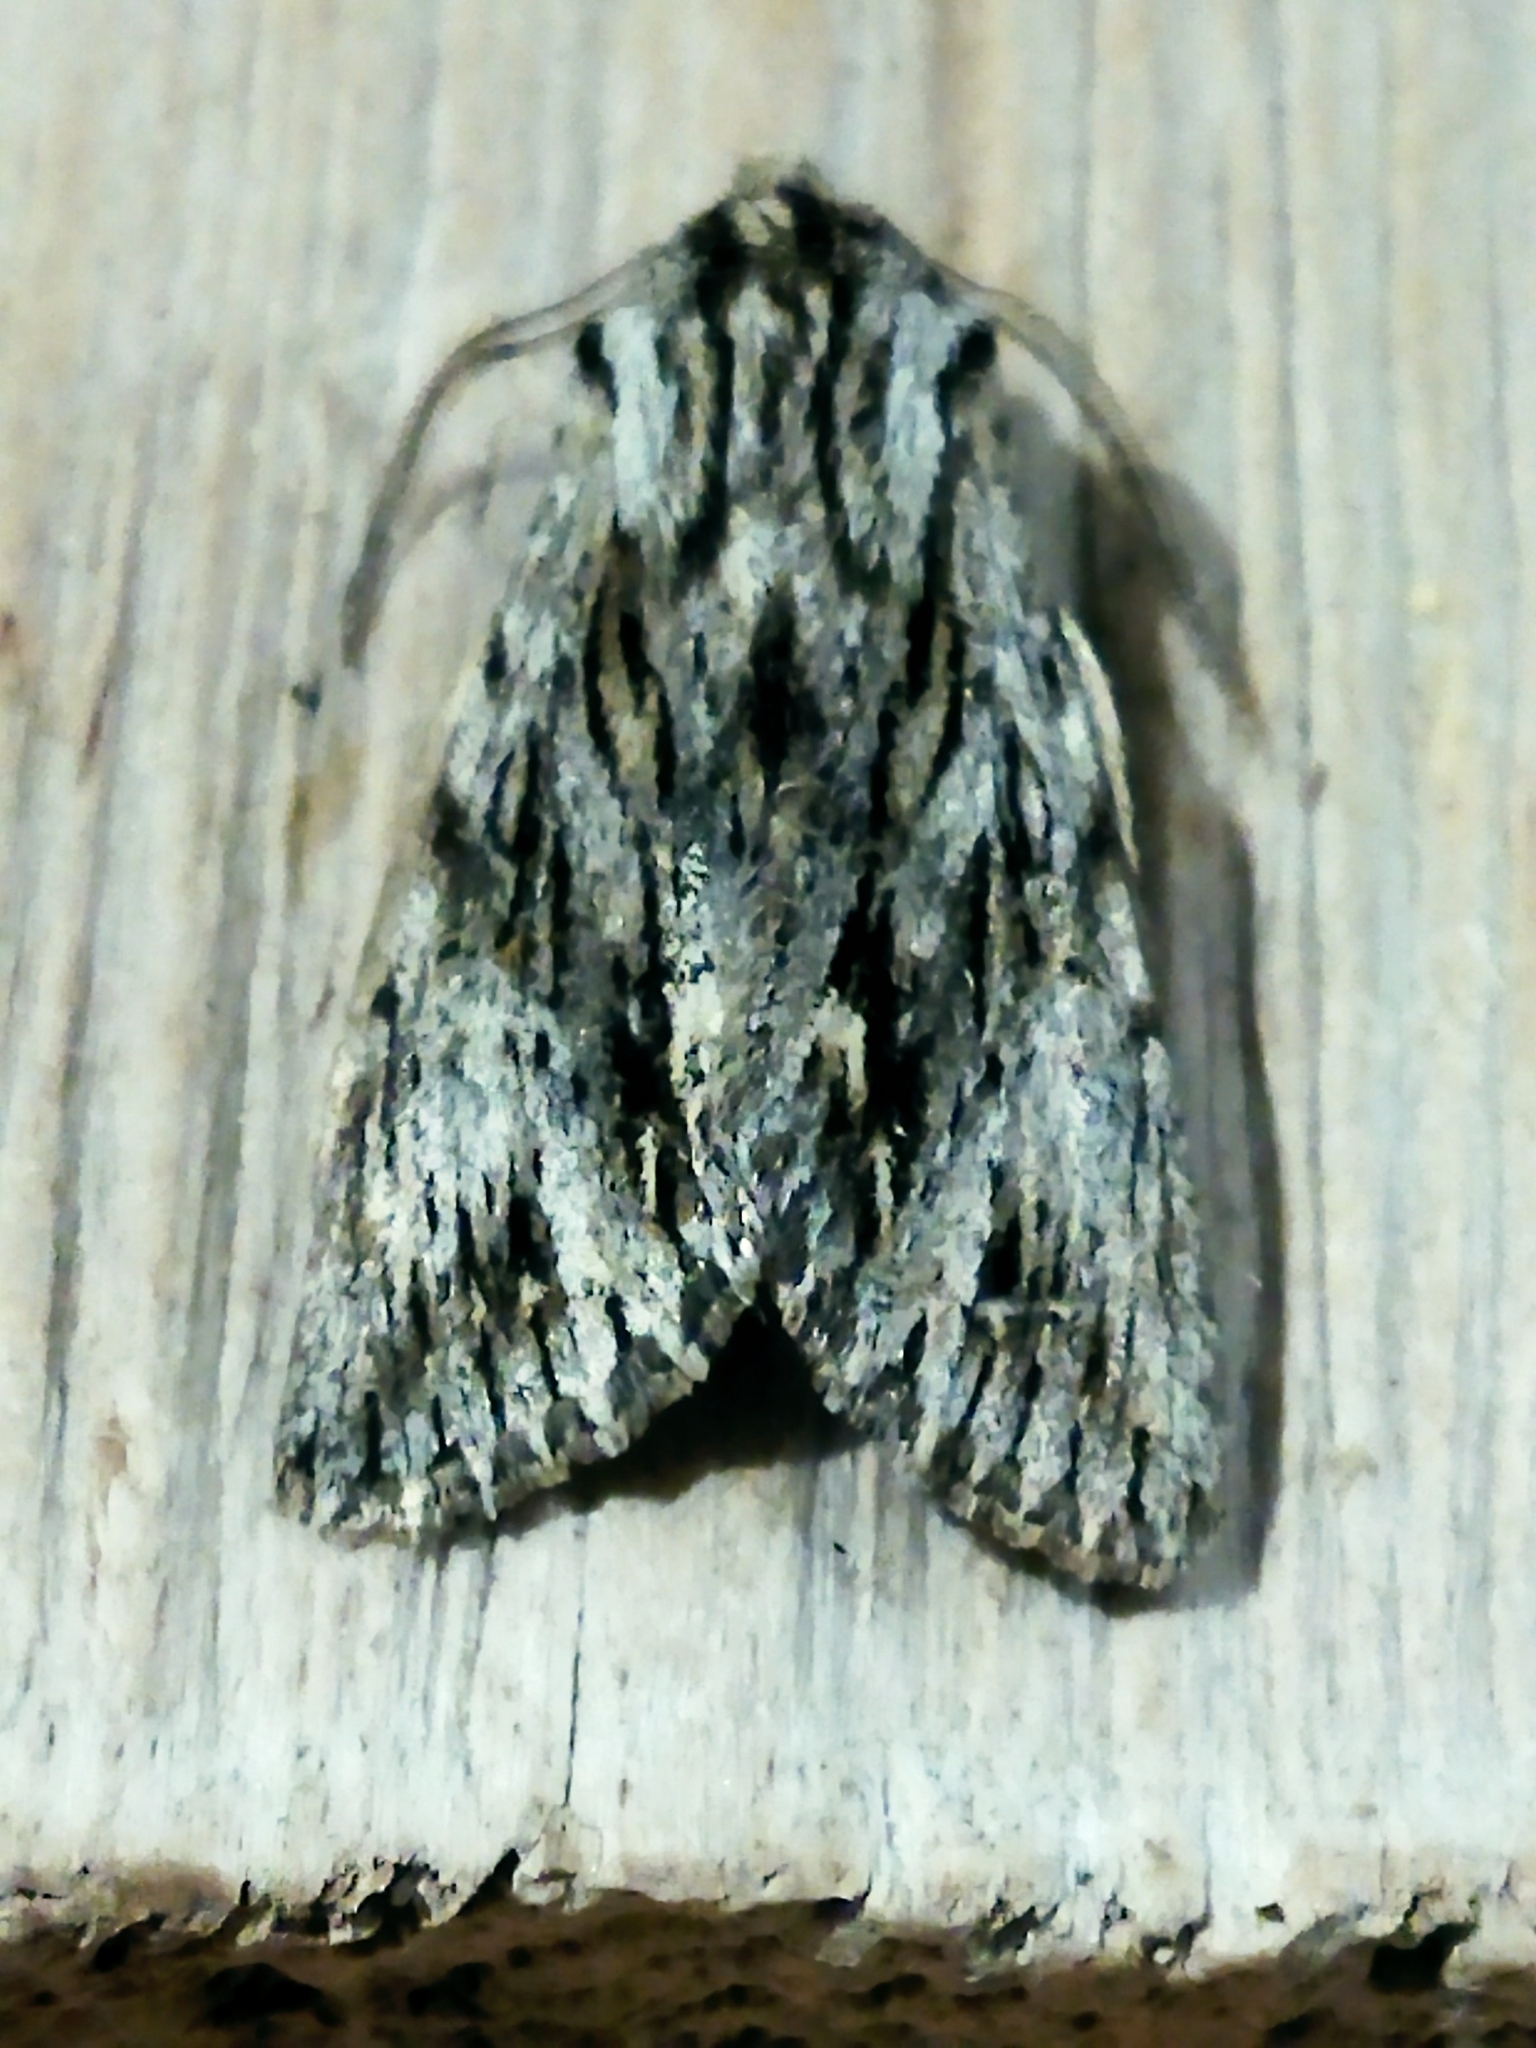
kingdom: Animalia
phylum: Arthropoda
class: Insecta
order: Lepidoptera
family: Noctuidae
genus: Asteroscopus
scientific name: Asteroscopus sphinx
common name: The sprawler
